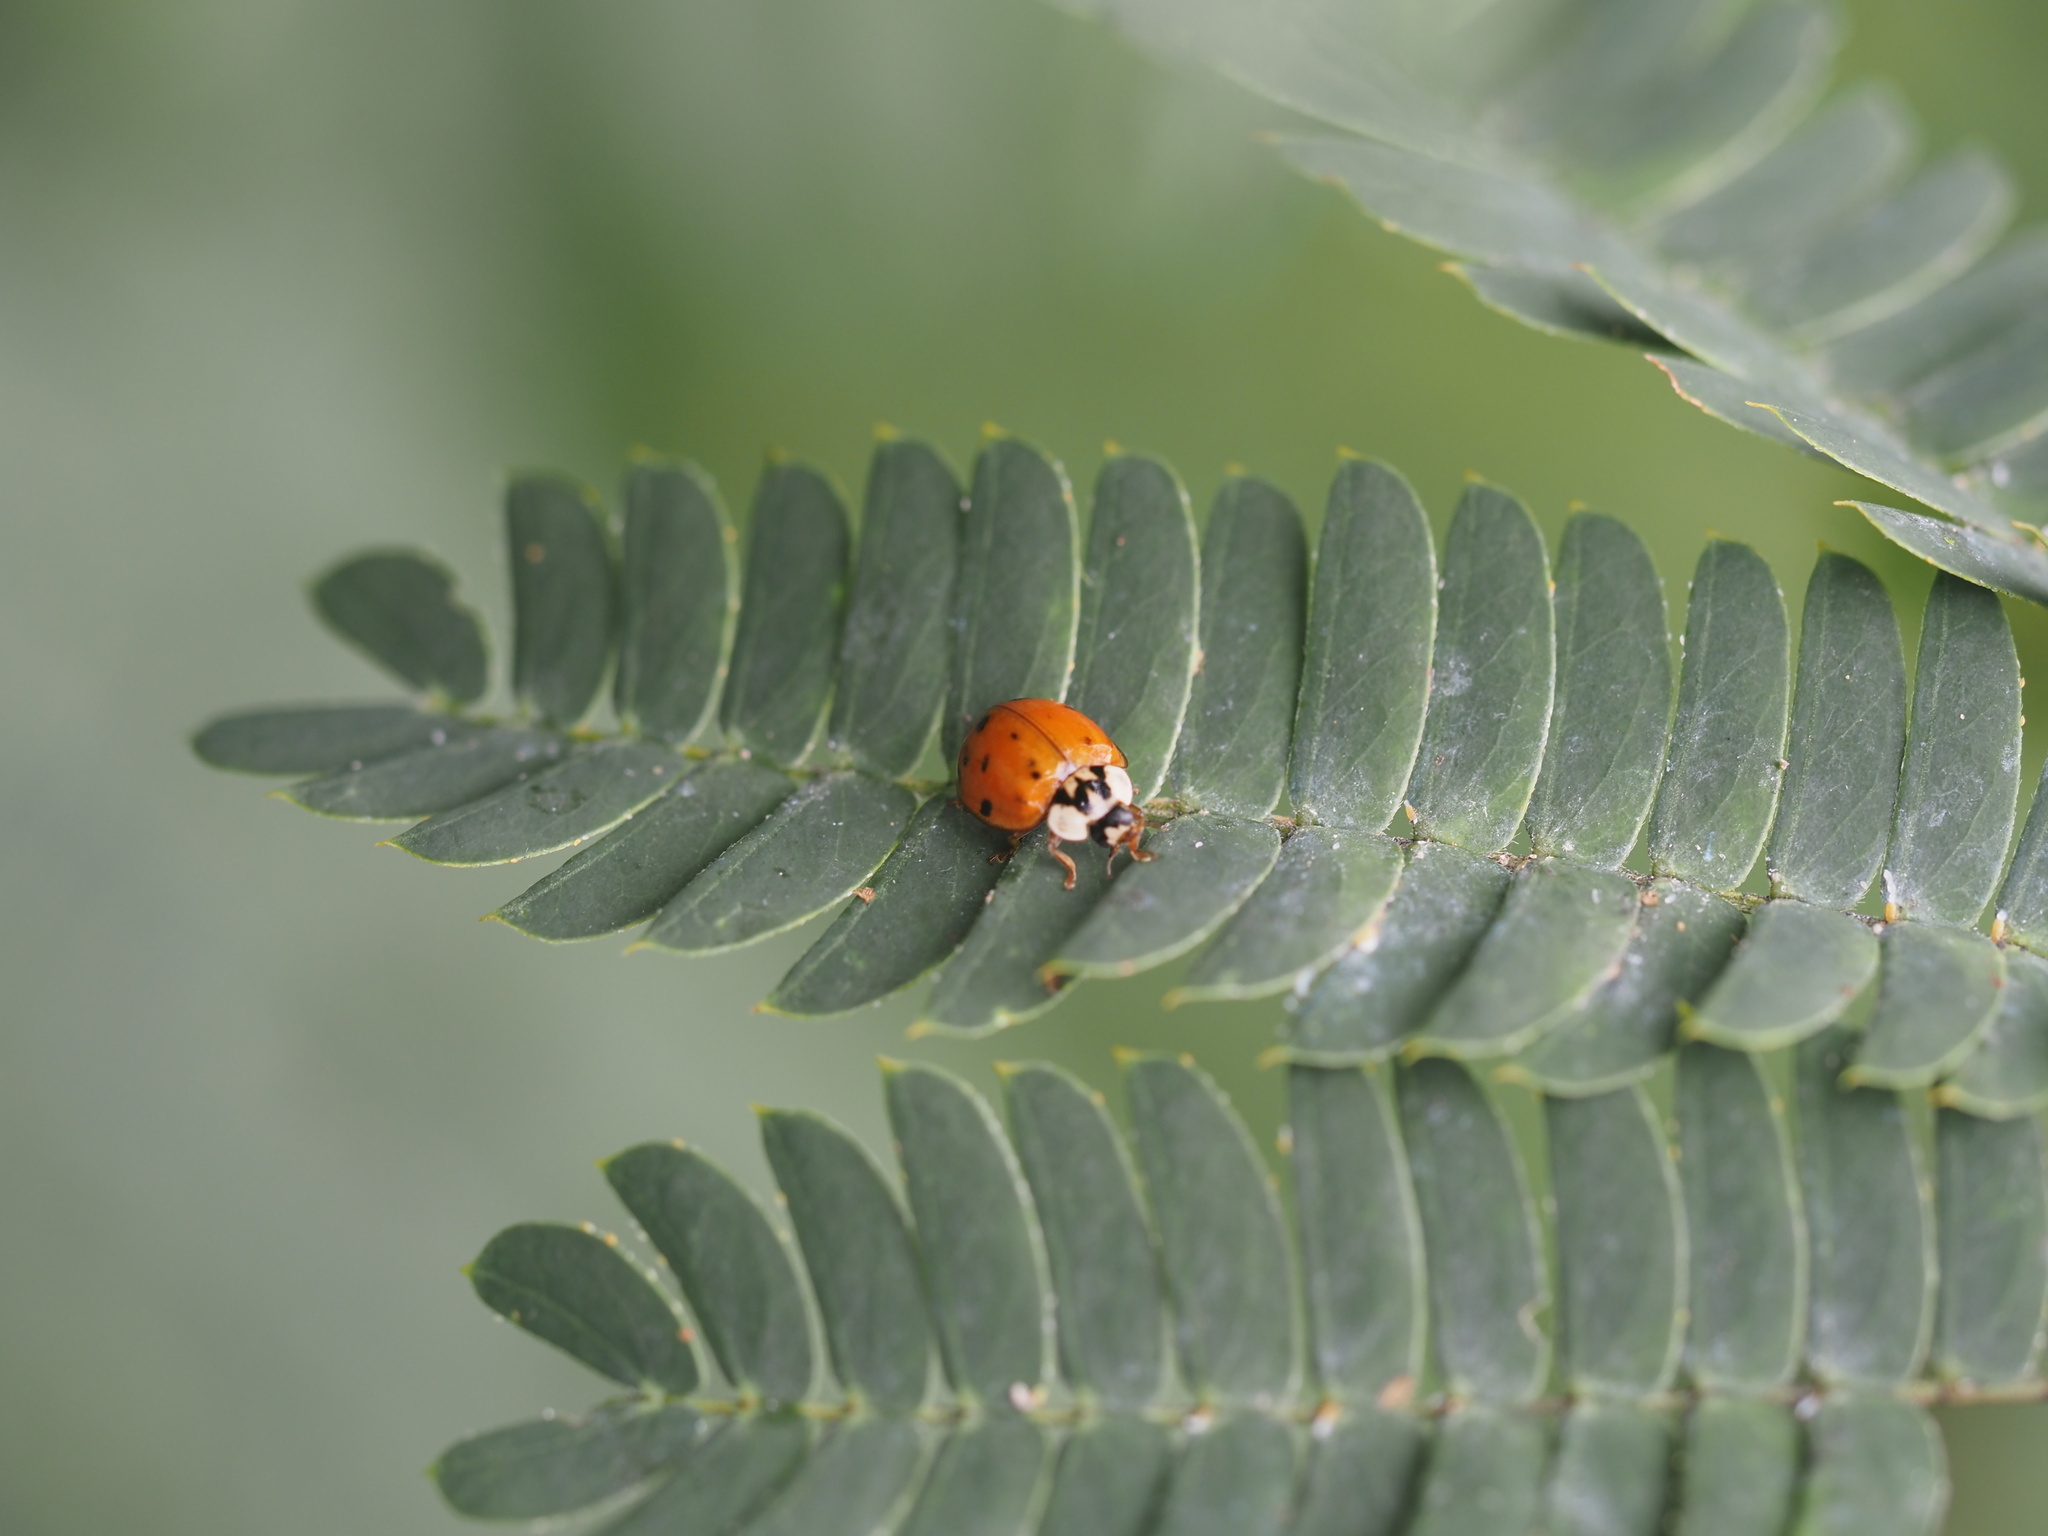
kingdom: Animalia
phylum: Arthropoda
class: Insecta
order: Coleoptera
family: Coccinellidae
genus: Harmonia
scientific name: Harmonia axyridis
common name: Harlequin ladybird
